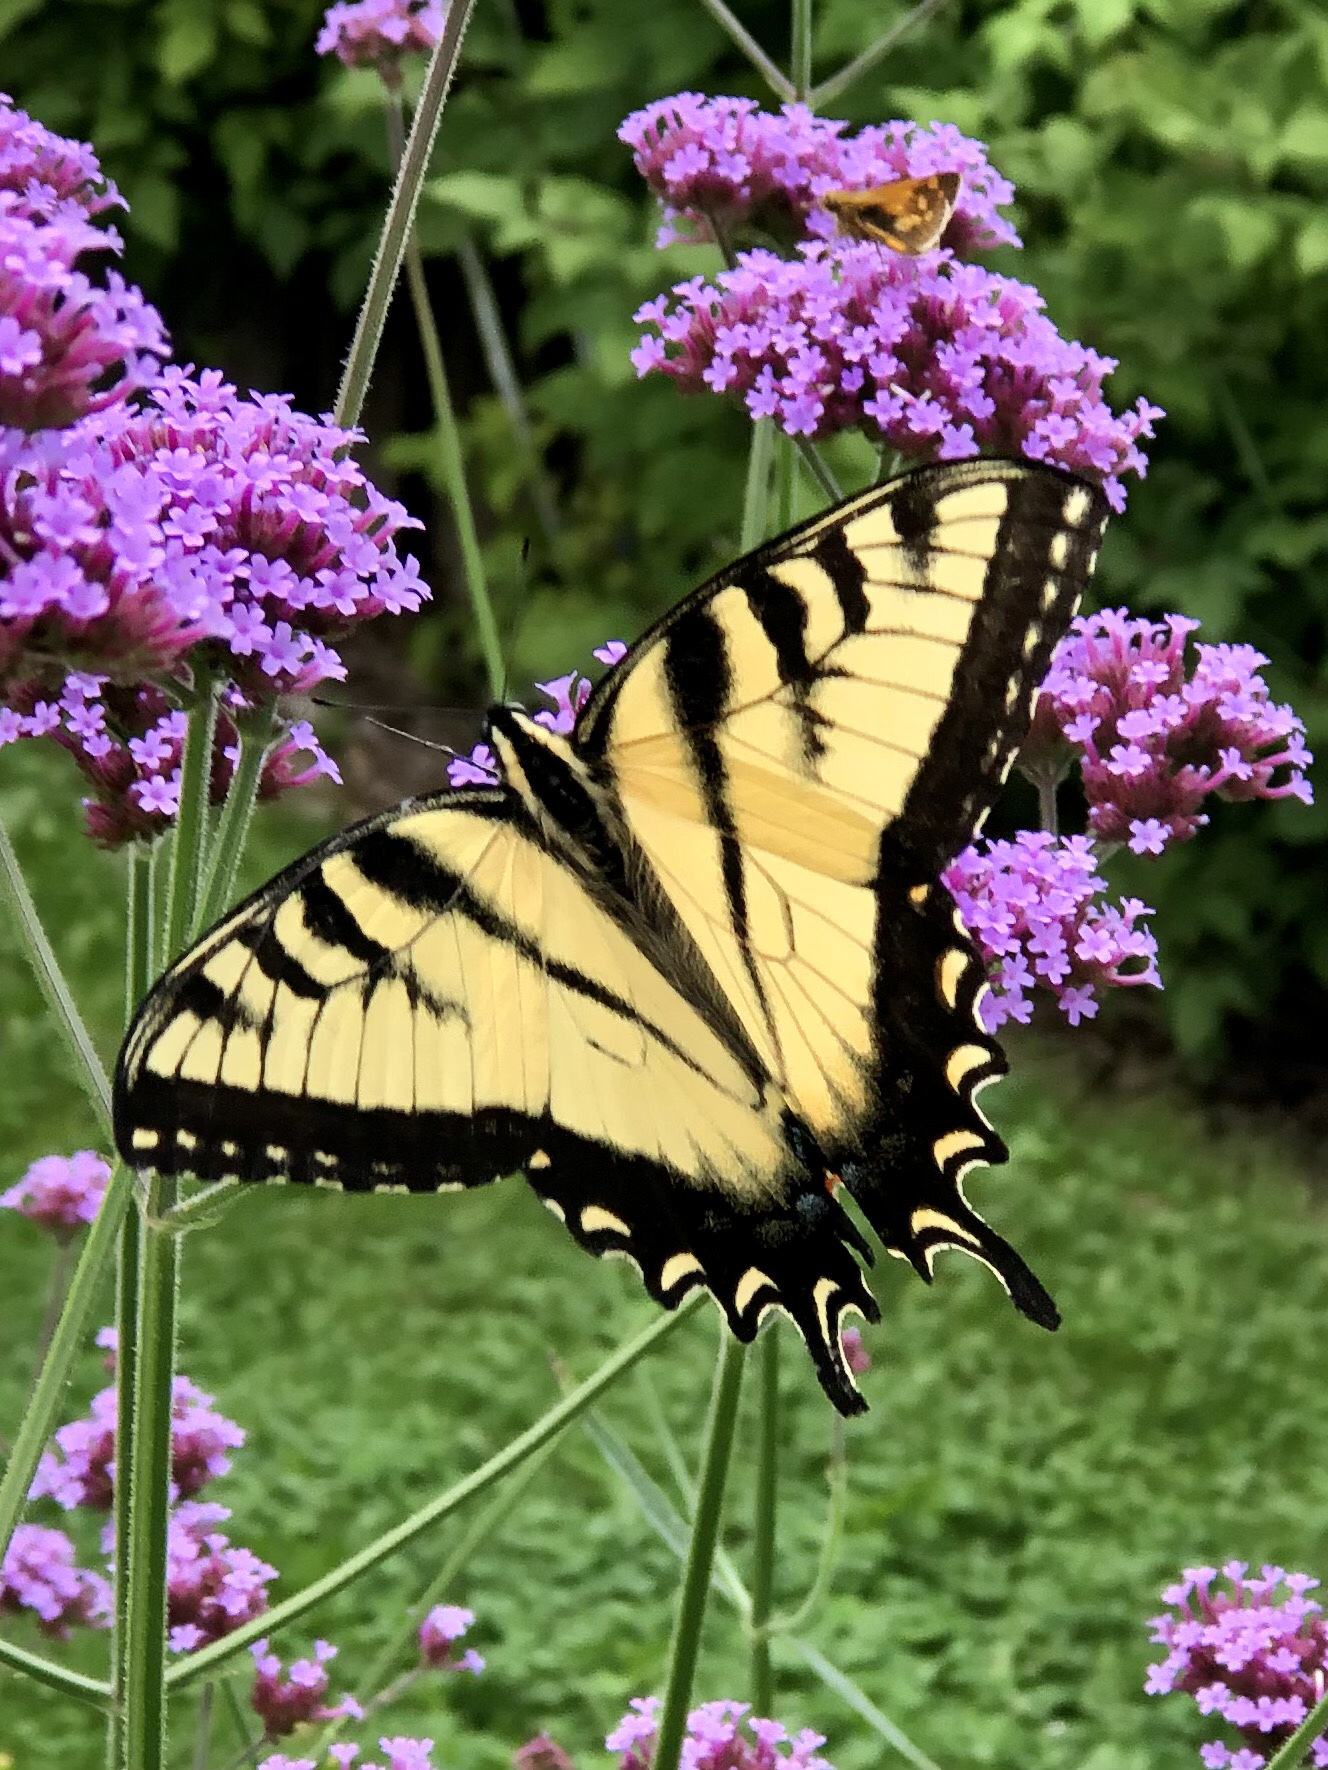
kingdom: Animalia
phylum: Arthropoda
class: Insecta
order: Lepidoptera
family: Papilionidae
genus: Papilio
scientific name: Papilio glaucus
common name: Tiger swallowtail
